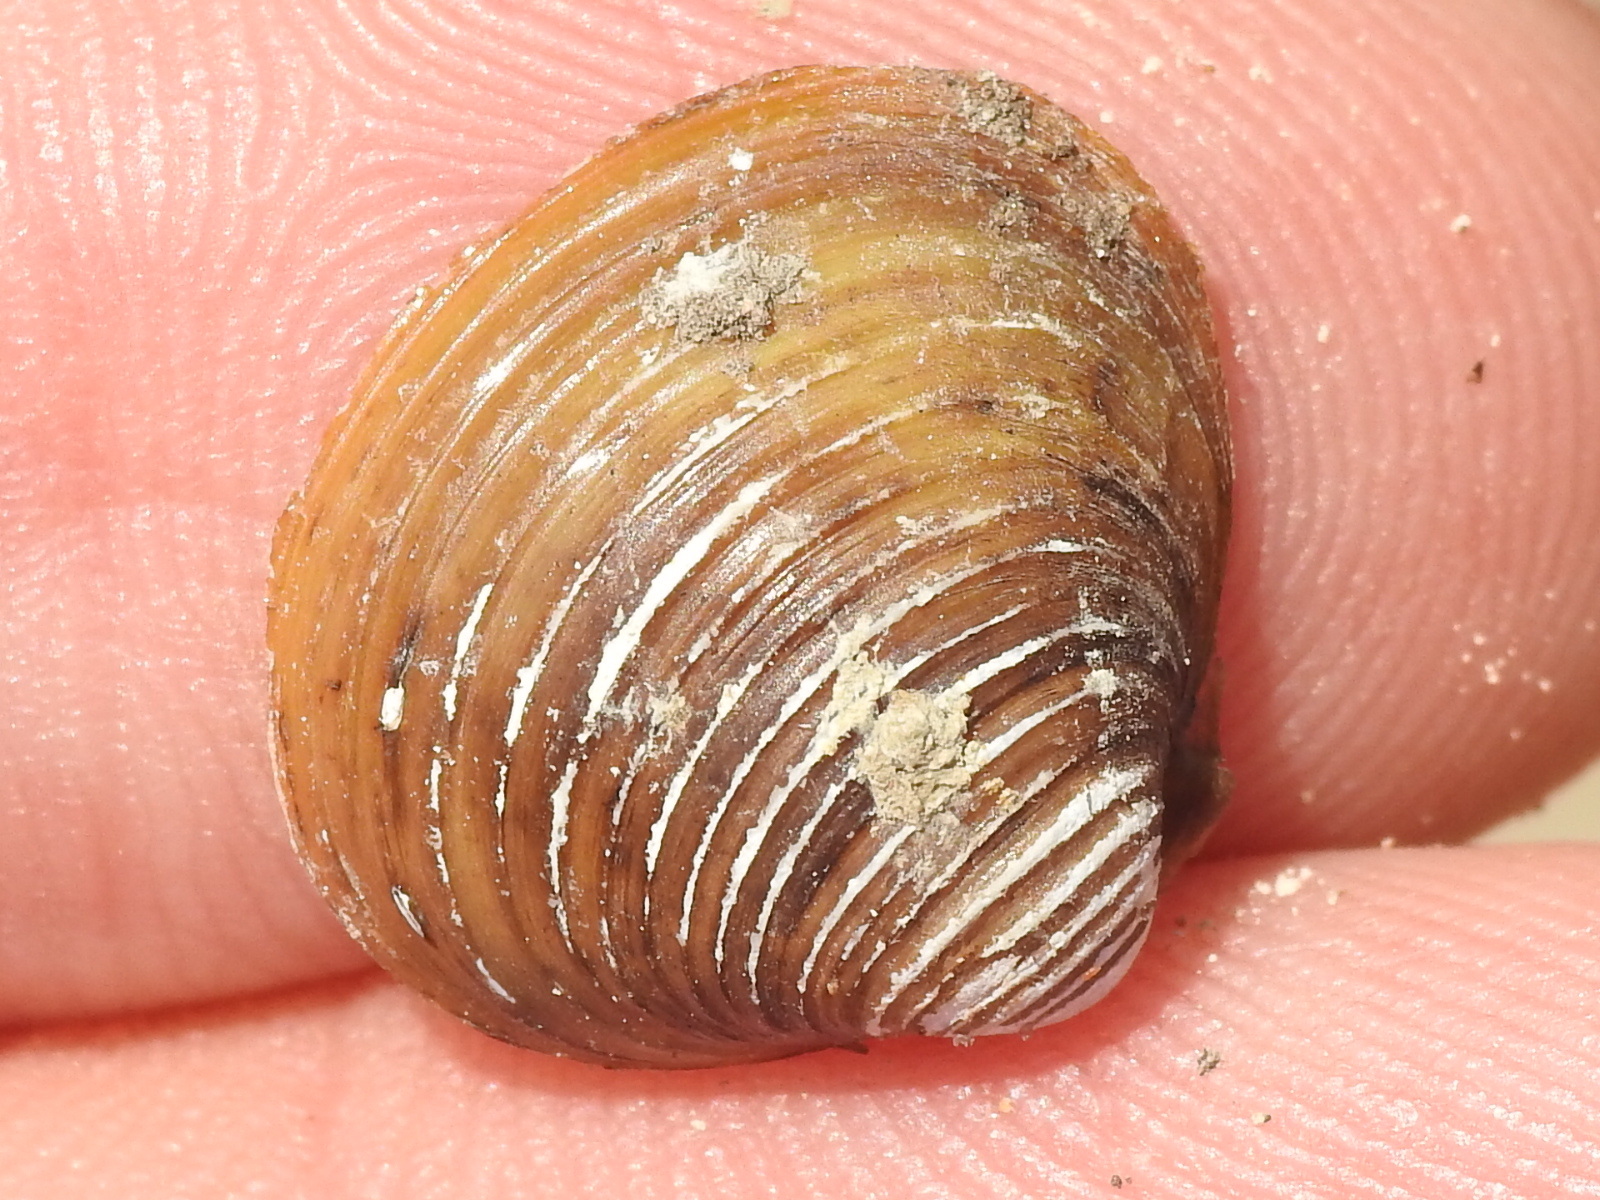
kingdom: Animalia
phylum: Mollusca
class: Bivalvia
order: Venerida
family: Cyrenidae
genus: Corbicula
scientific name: Corbicula fluminea
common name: Asian clam
